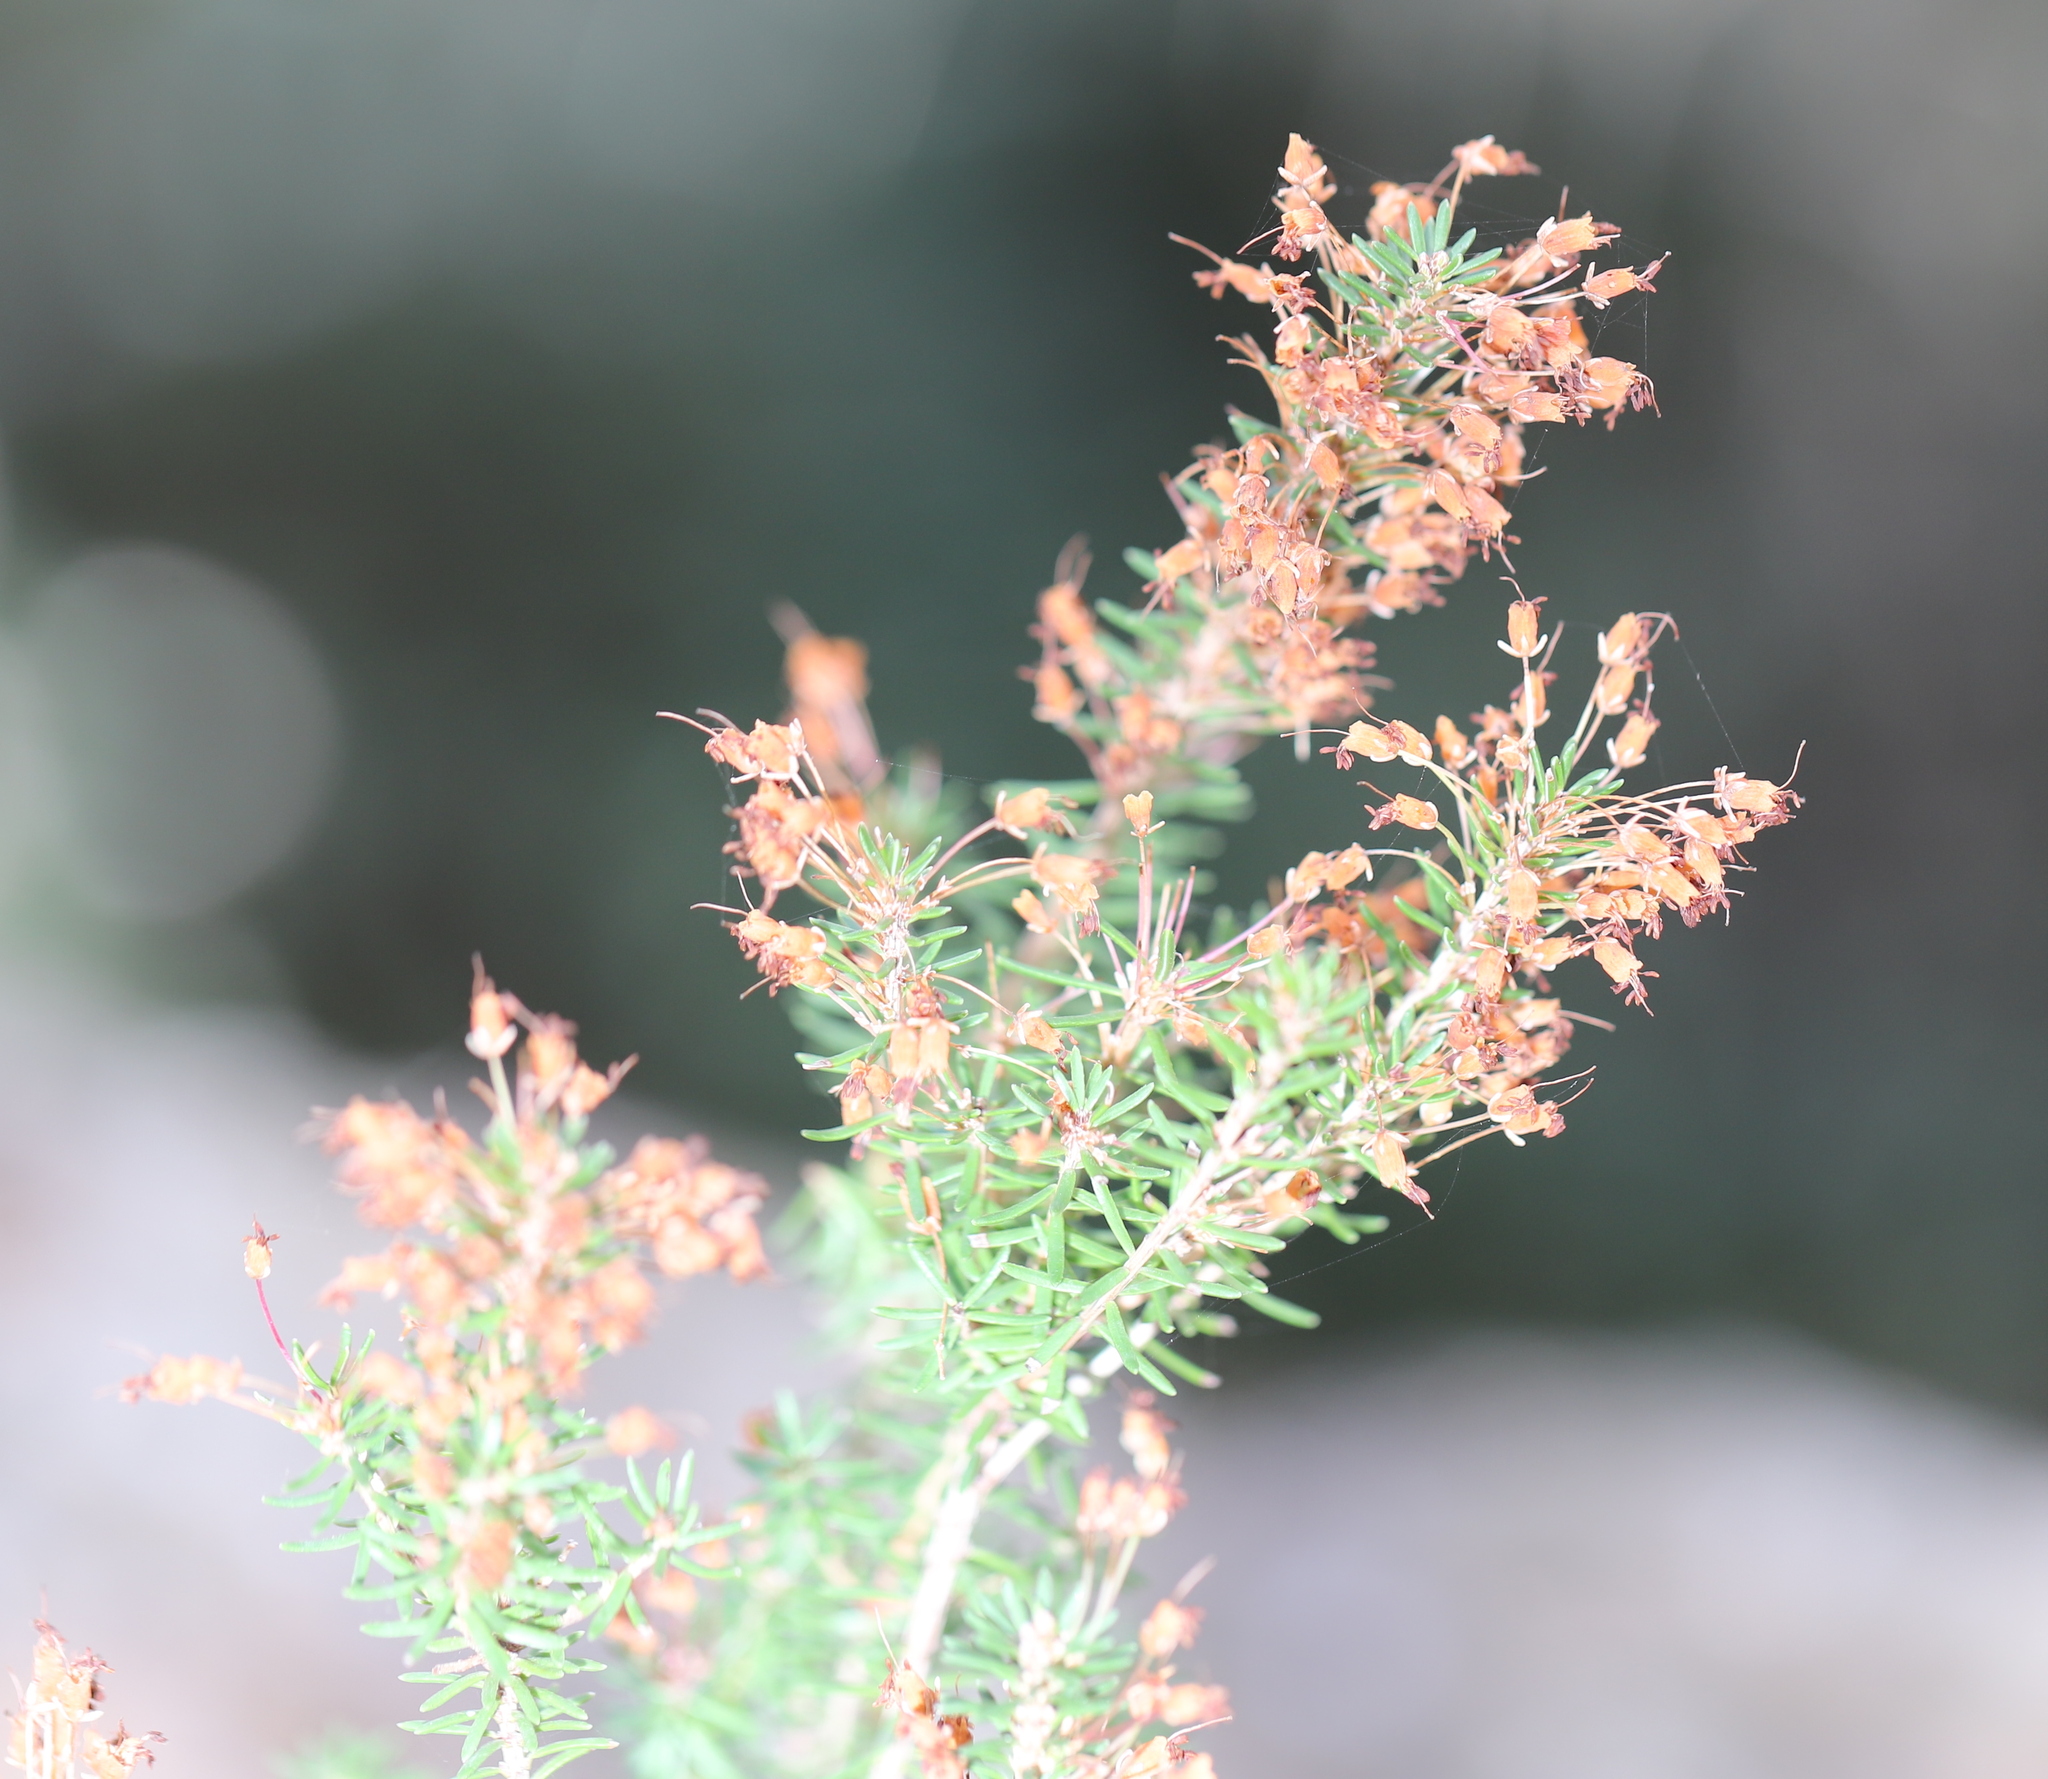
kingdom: Plantae
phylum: Tracheophyta
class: Magnoliopsida
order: Ericales
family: Ericaceae
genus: Erica
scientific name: Erica multiflora
